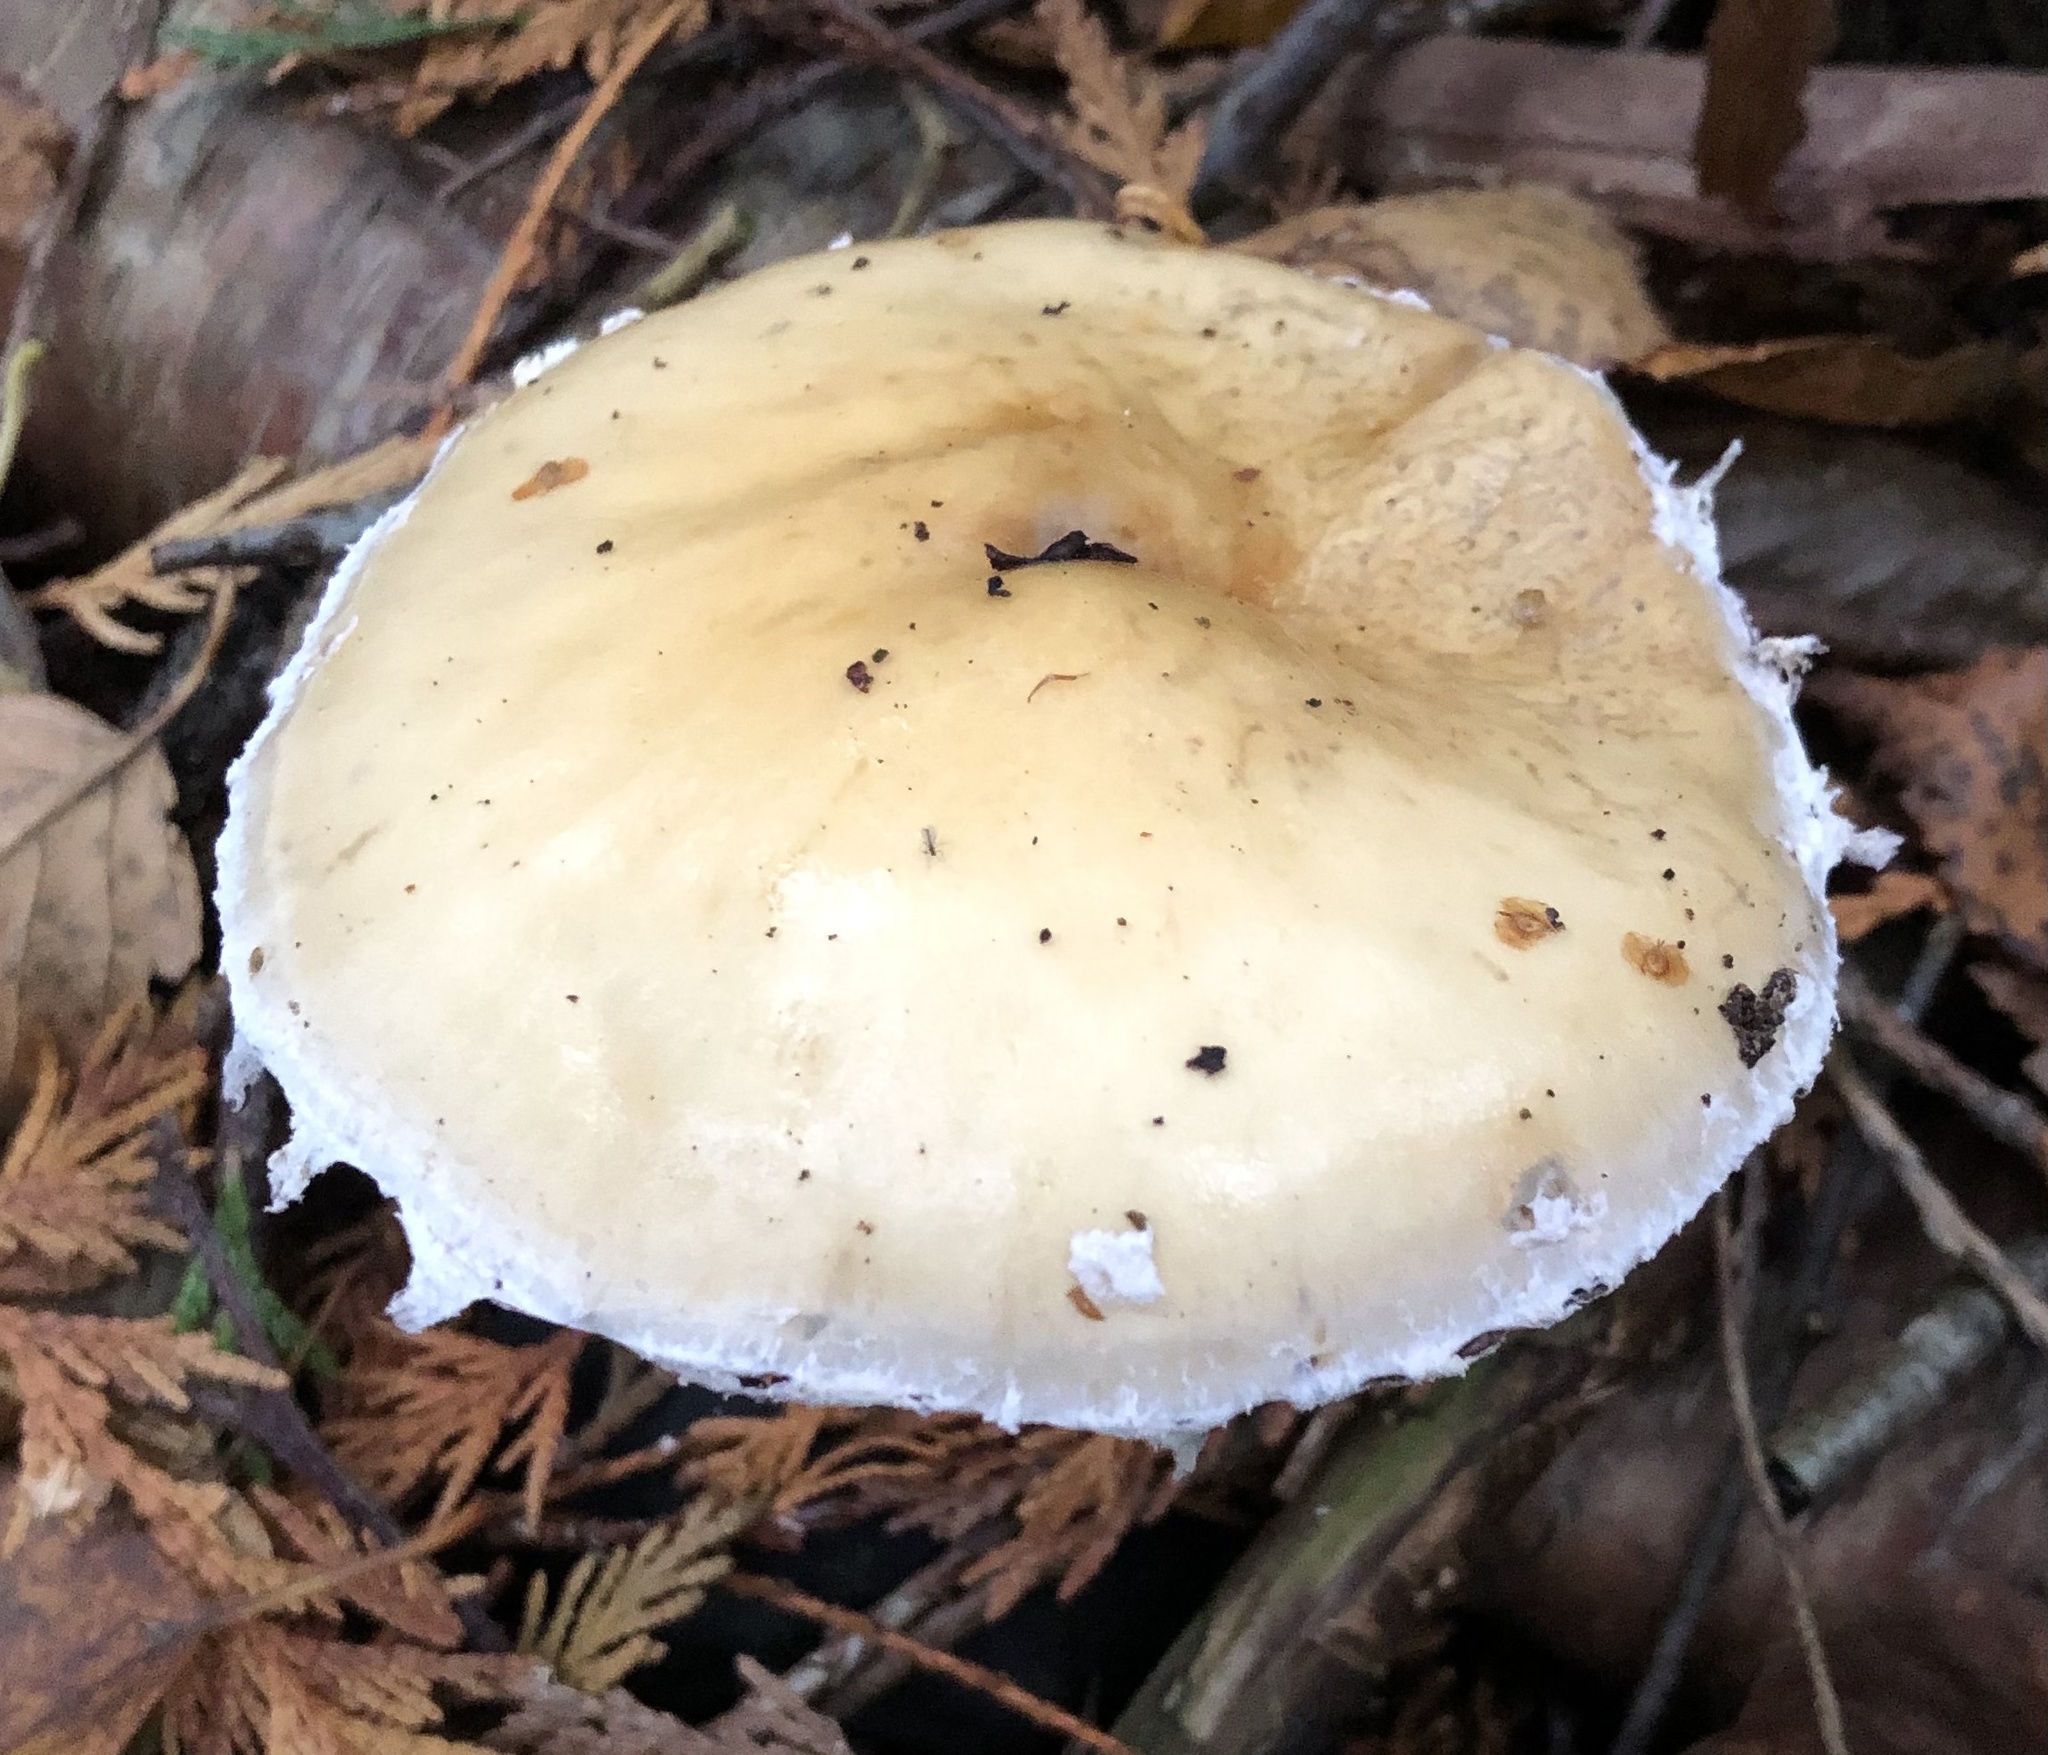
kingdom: Fungi
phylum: Basidiomycota
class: Agaricomycetes
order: Agaricales
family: Strophariaceae
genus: Stropharia
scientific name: Stropharia ambigua
